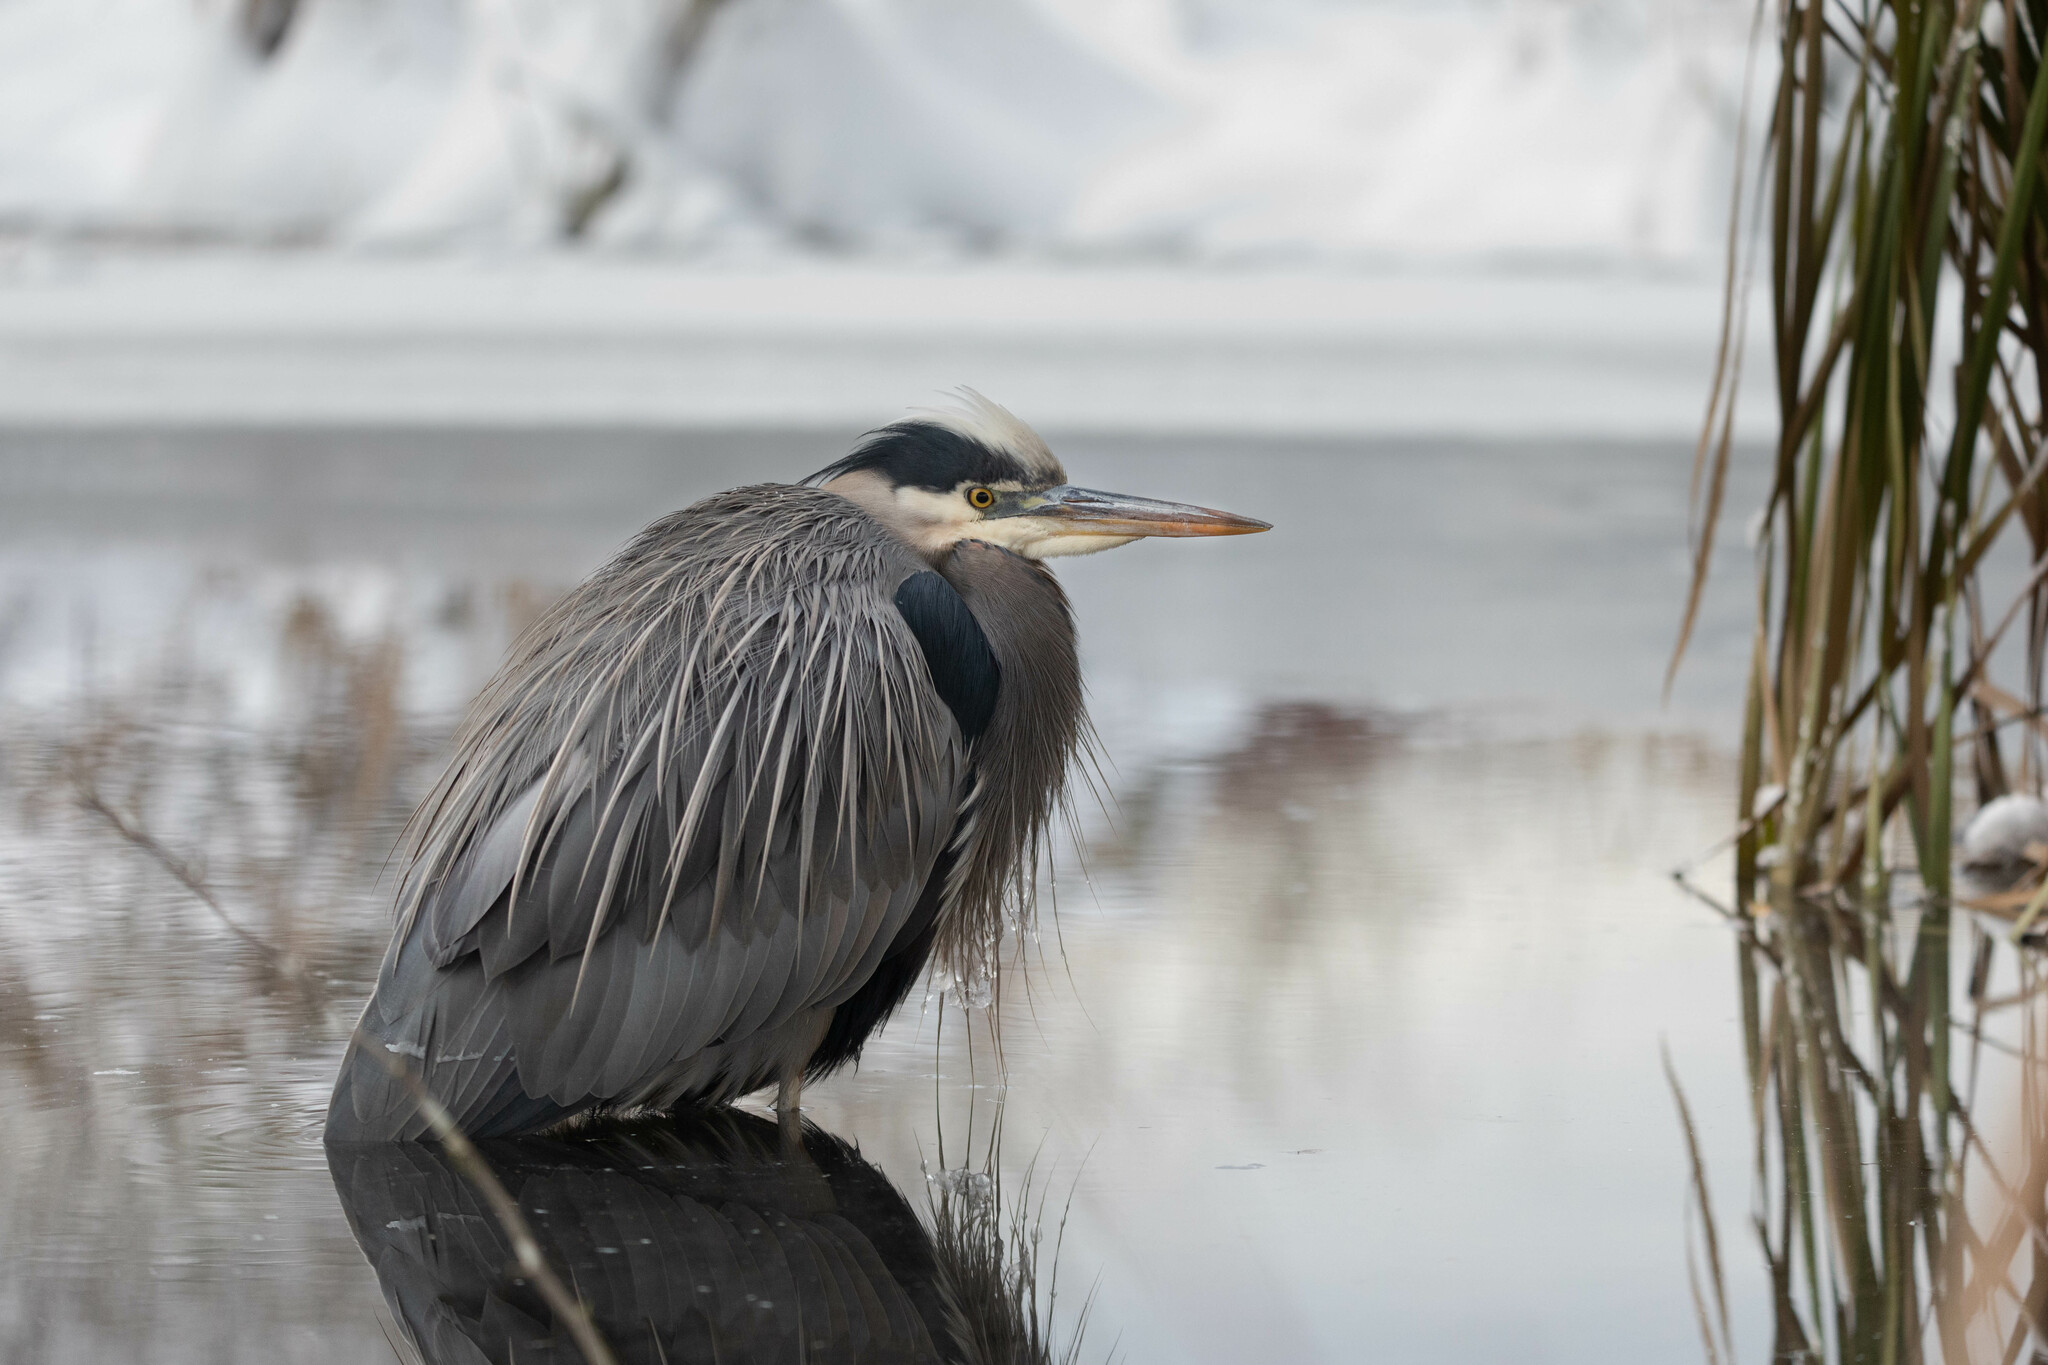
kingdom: Animalia
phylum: Chordata
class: Aves
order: Pelecaniformes
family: Ardeidae
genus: Ardea
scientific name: Ardea herodias
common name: Great blue heron
